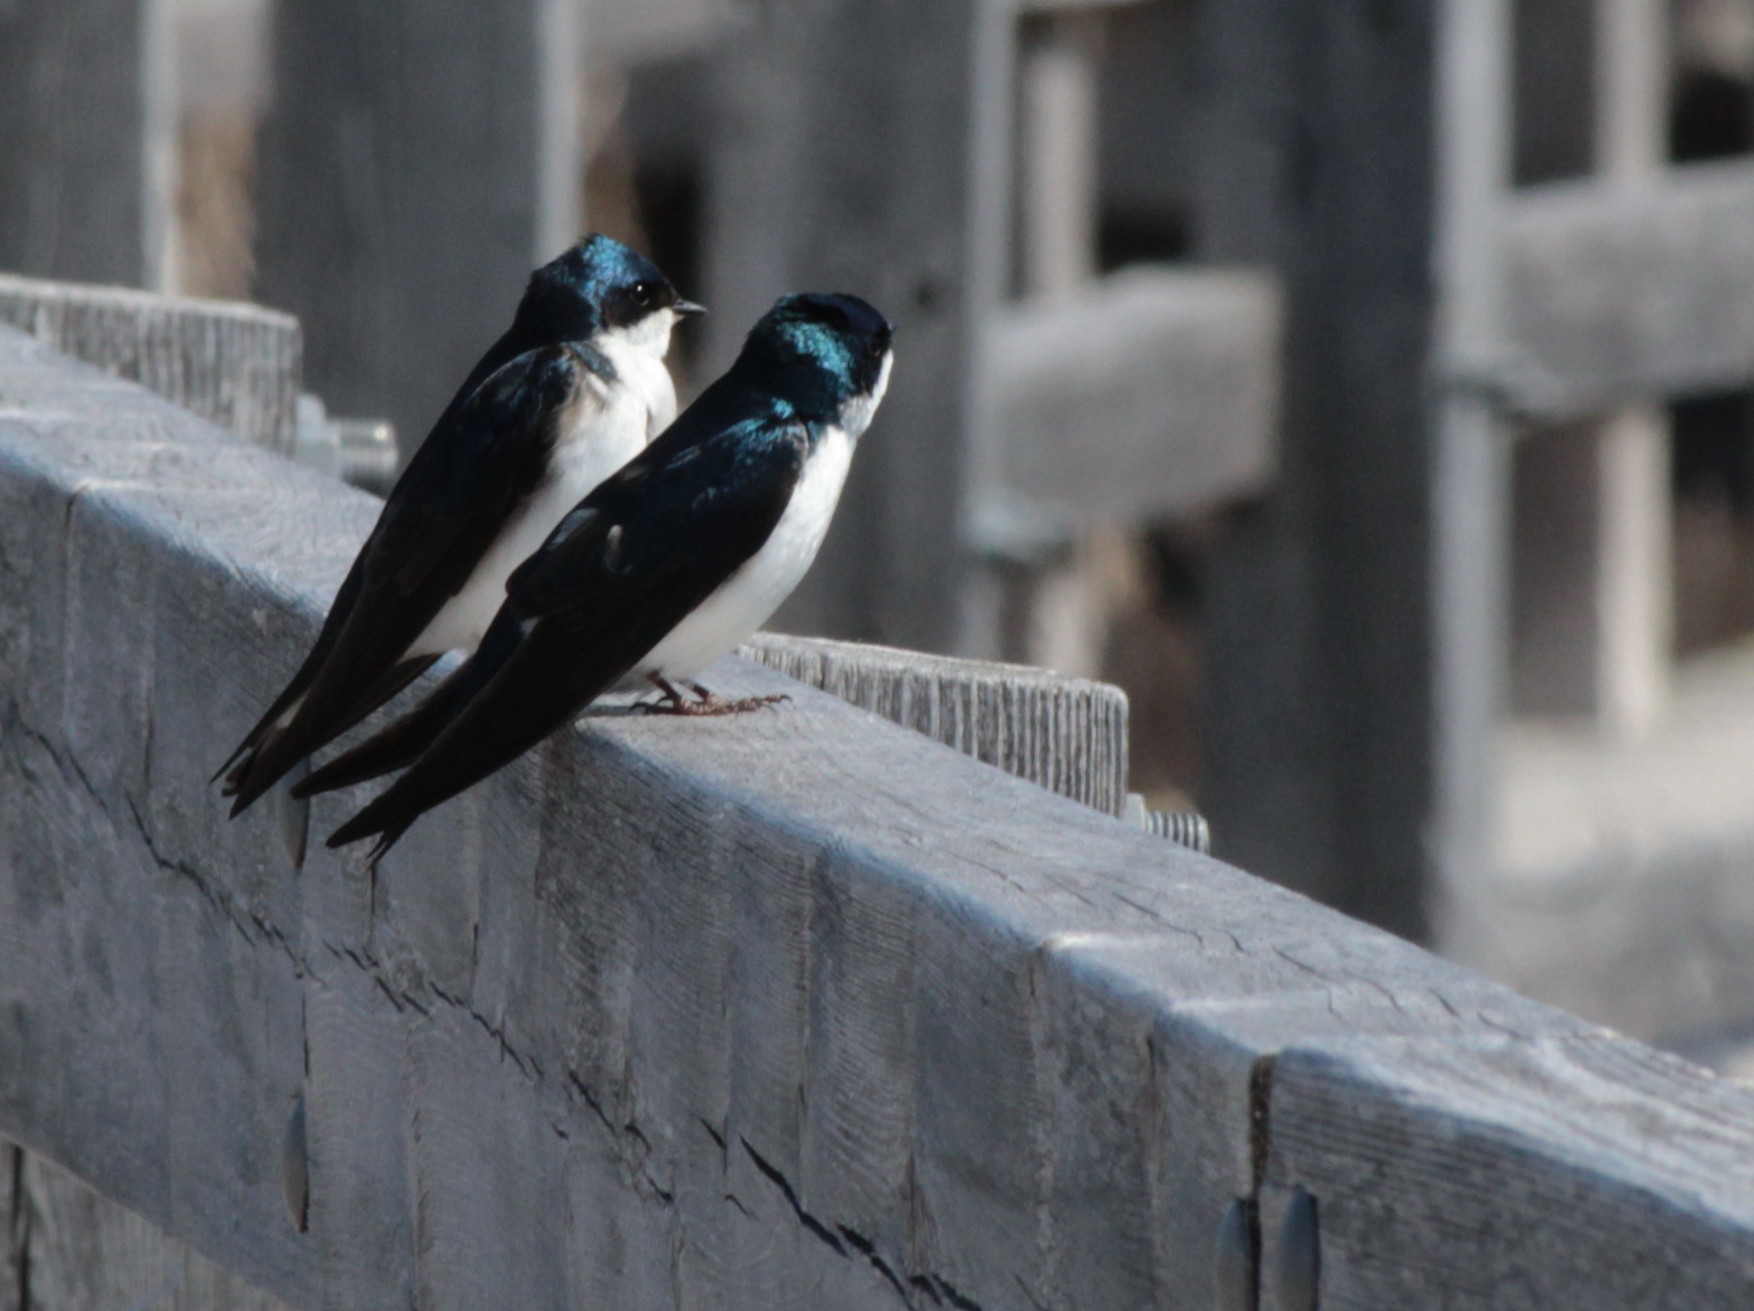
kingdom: Animalia
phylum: Chordata
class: Aves
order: Passeriformes
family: Hirundinidae
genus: Tachycineta
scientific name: Tachycineta bicolor
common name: Tree swallow
